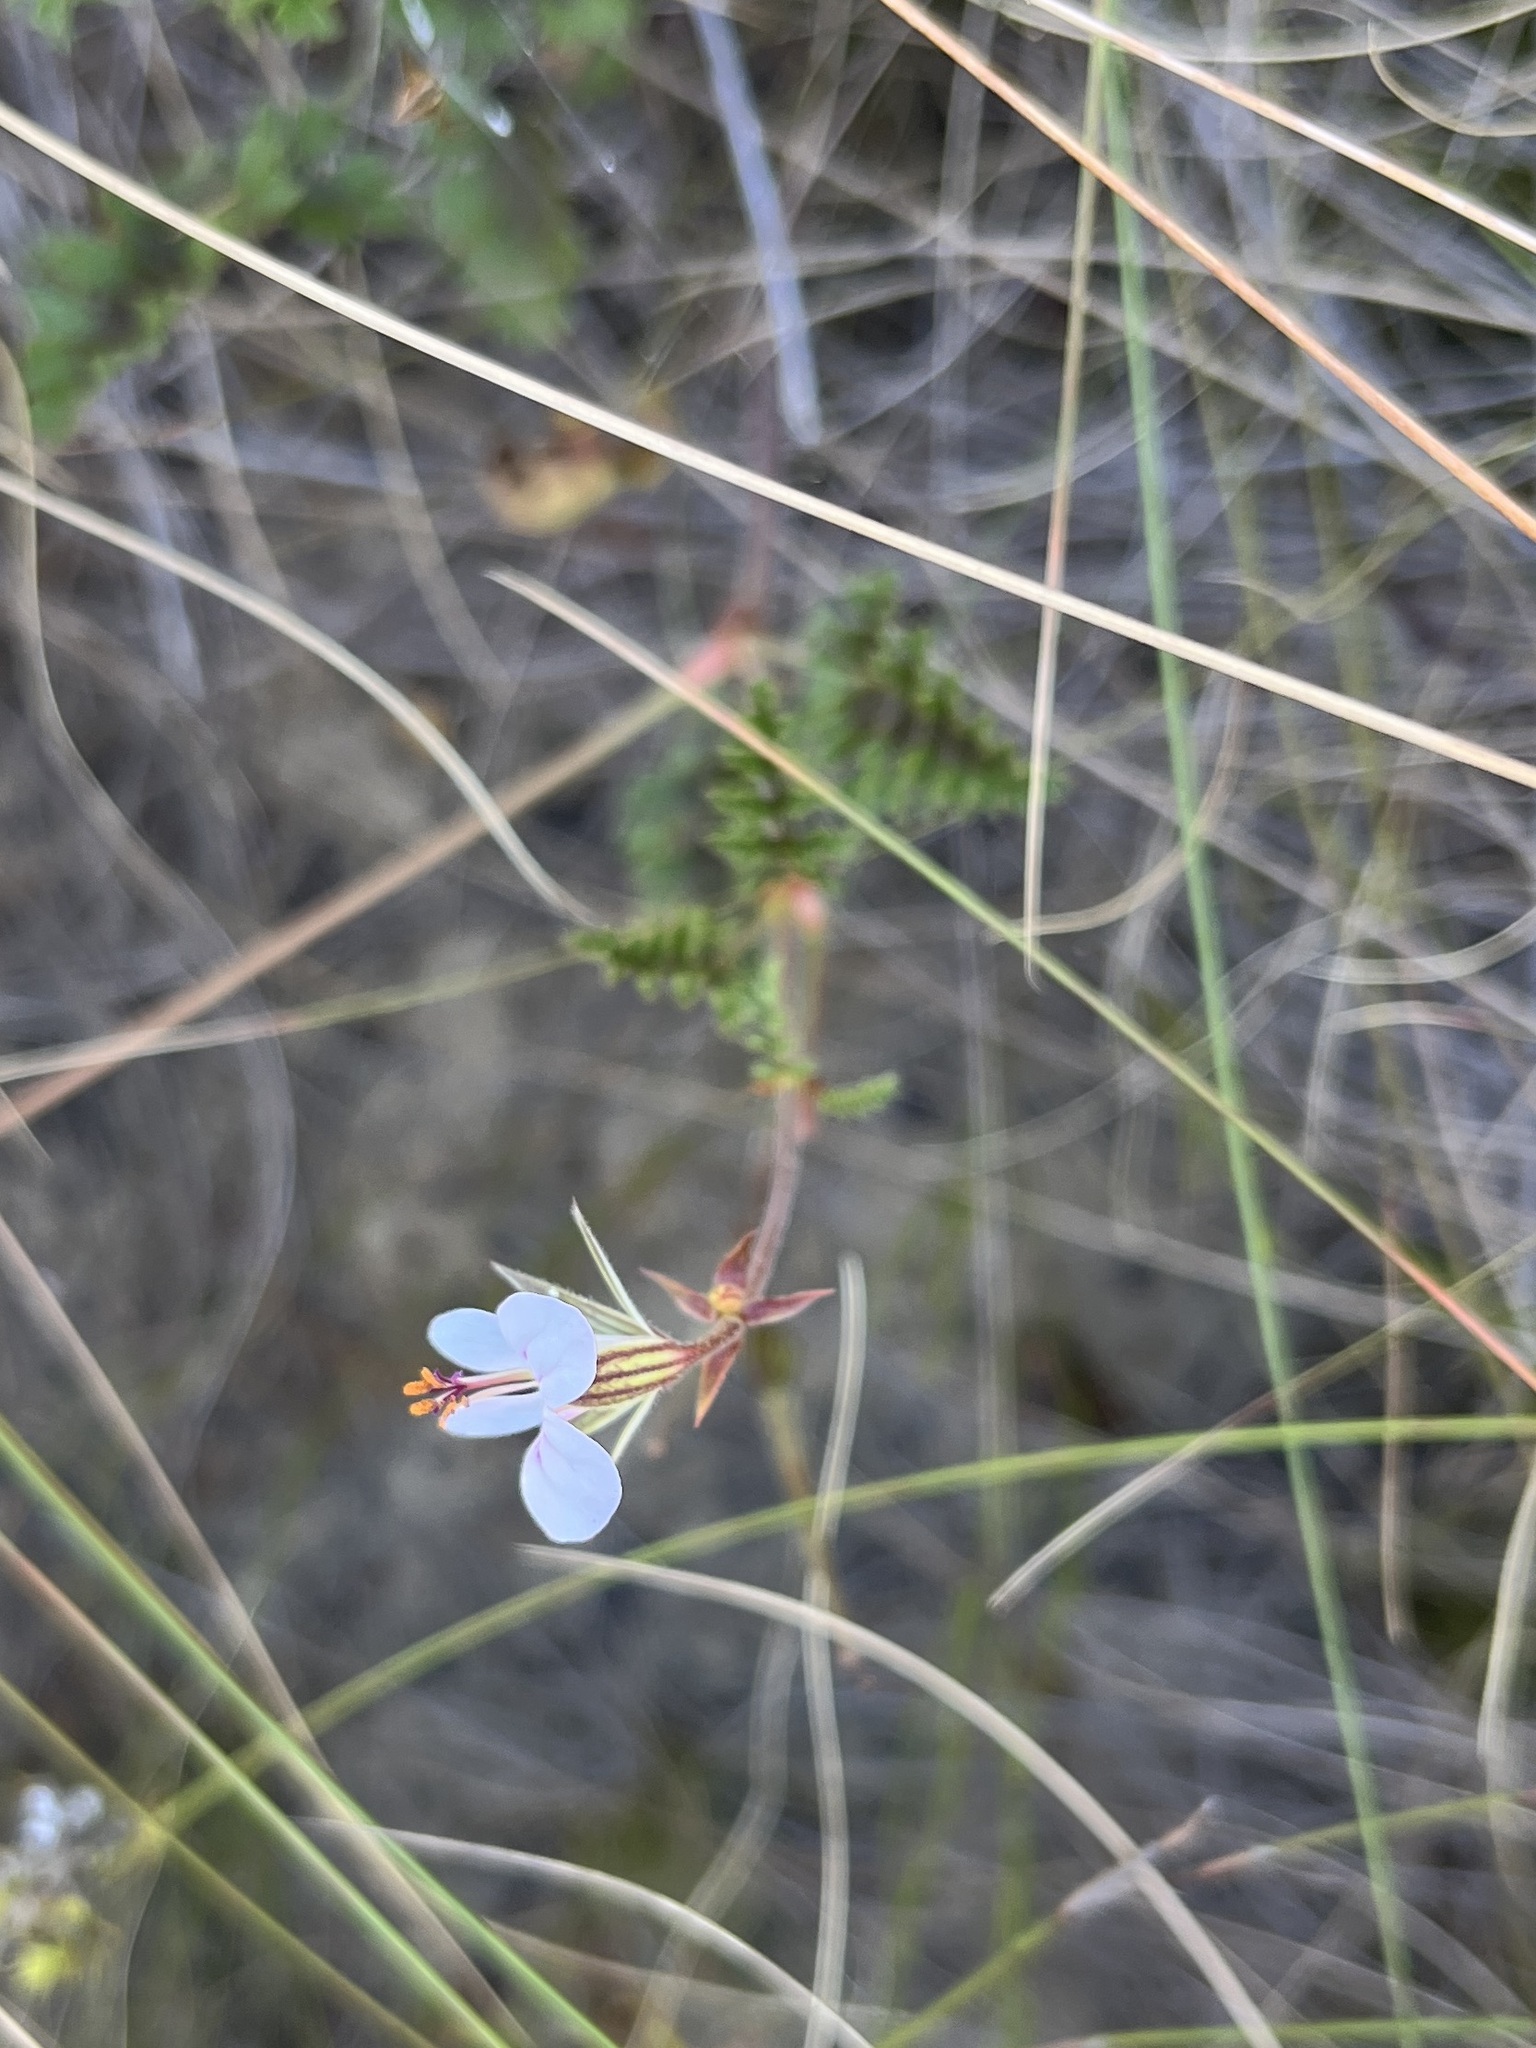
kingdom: Plantae
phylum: Tracheophyta
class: Magnoliopsida
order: Geraniales
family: Geraniaceae
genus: Pelargonium
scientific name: Pelargonium myrrhifolium
